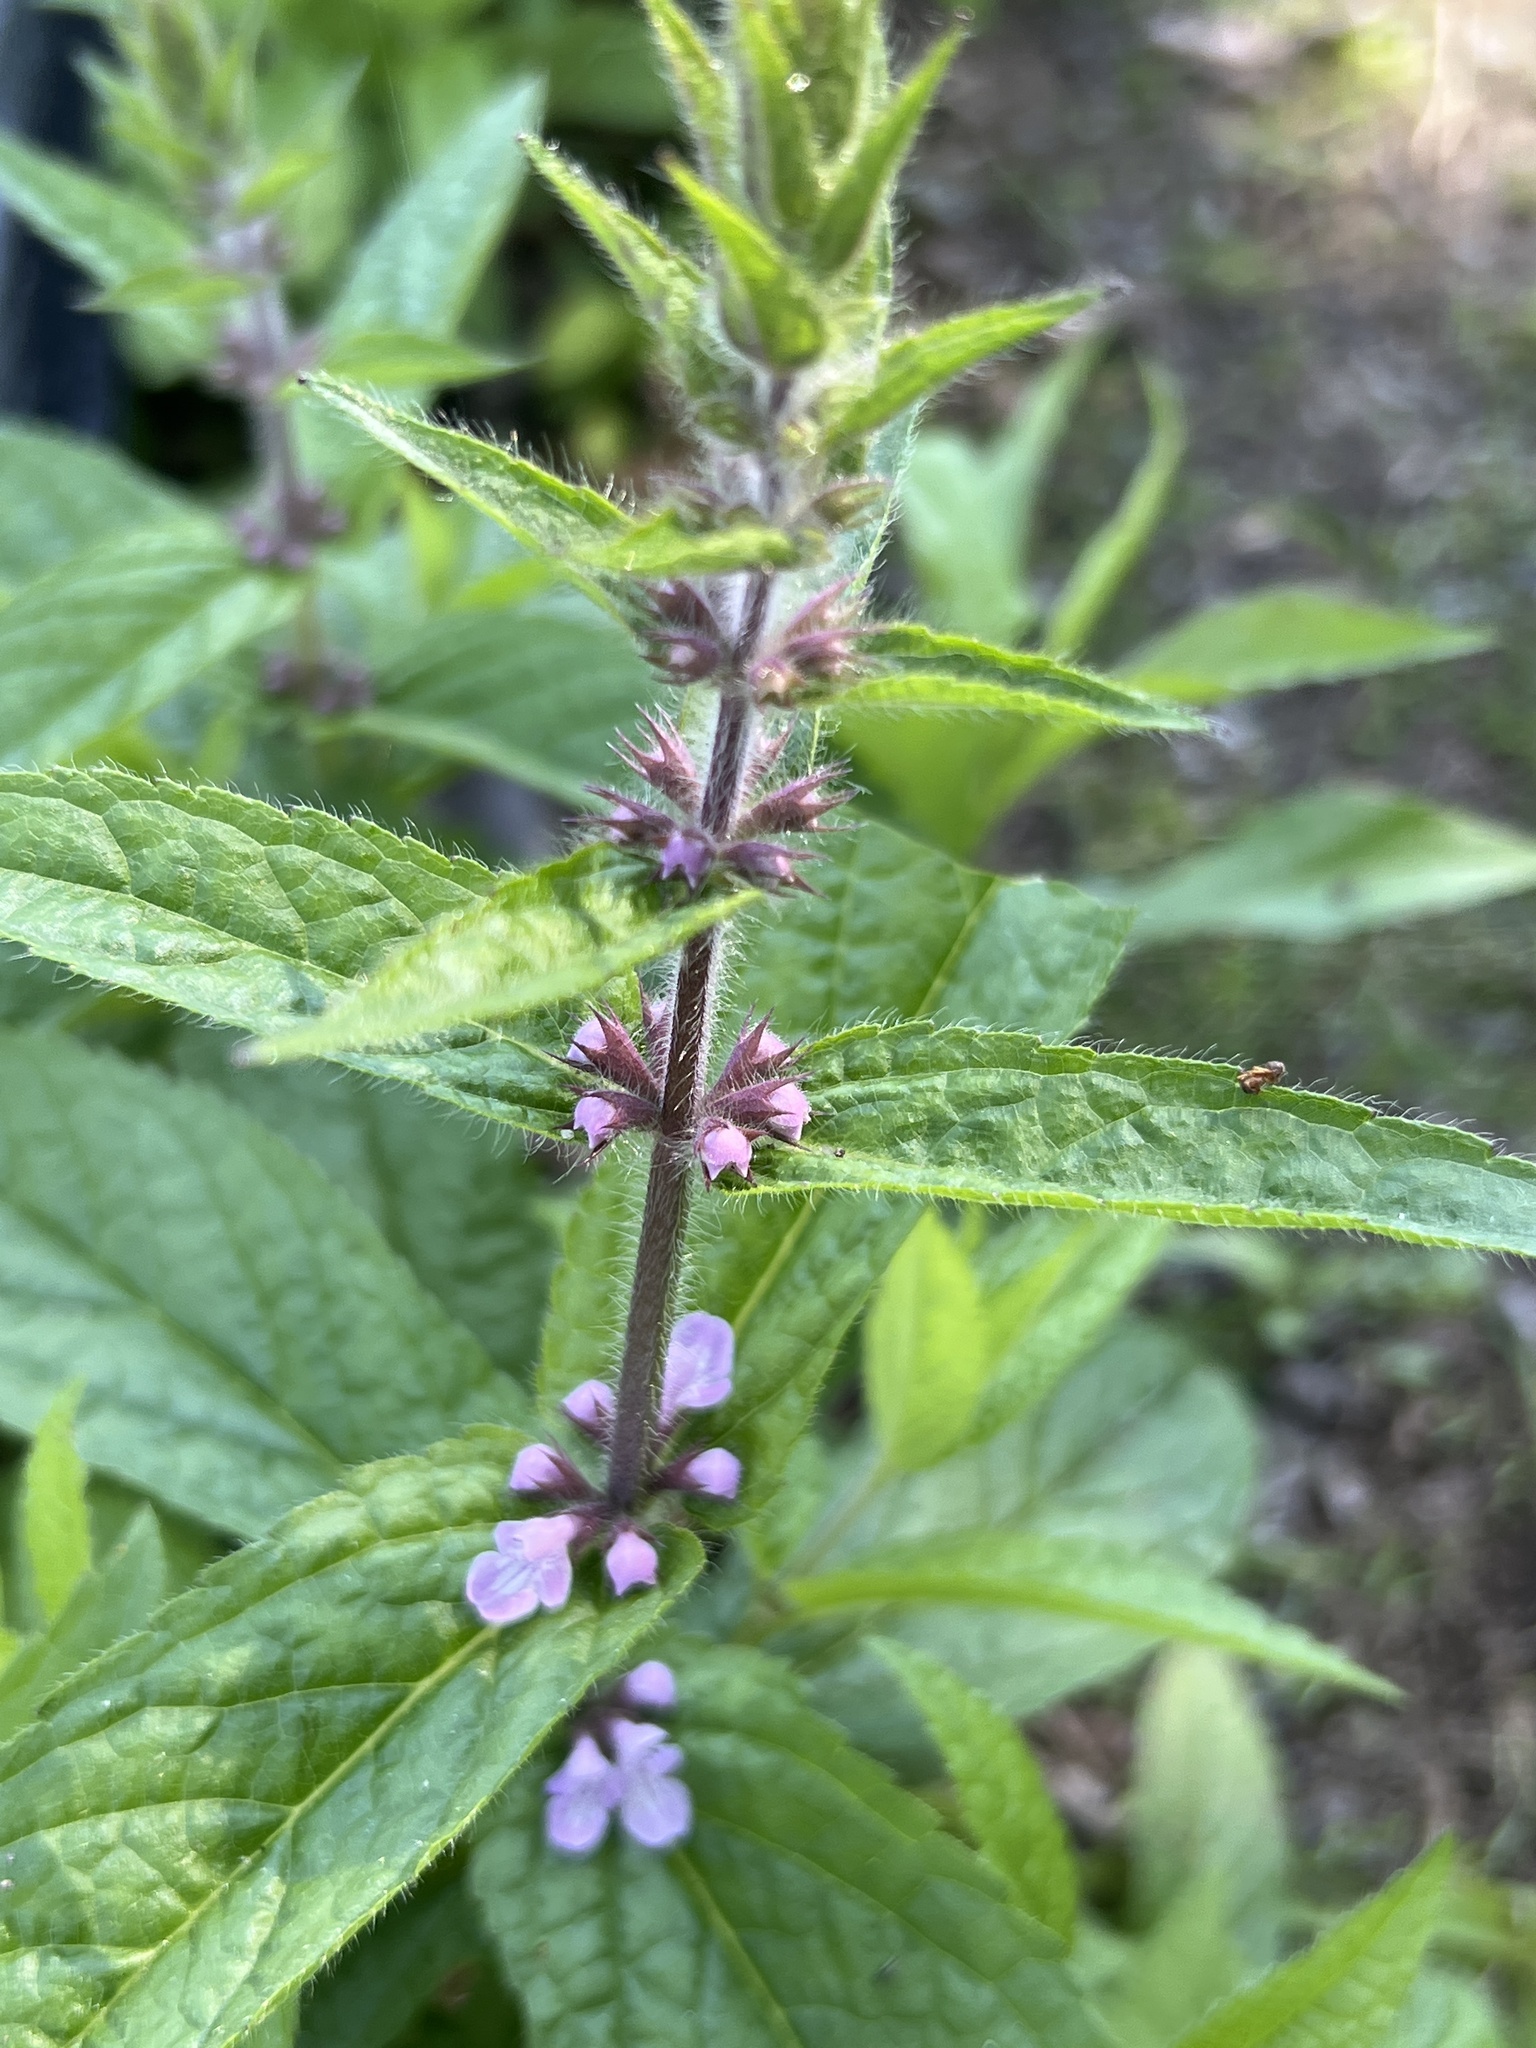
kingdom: Plantae
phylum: Tracheophyta
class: Magnoliopsida
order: Lamiales
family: Lamiaceae
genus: Stachys
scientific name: Stachys palustris
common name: Marsh woundwort
